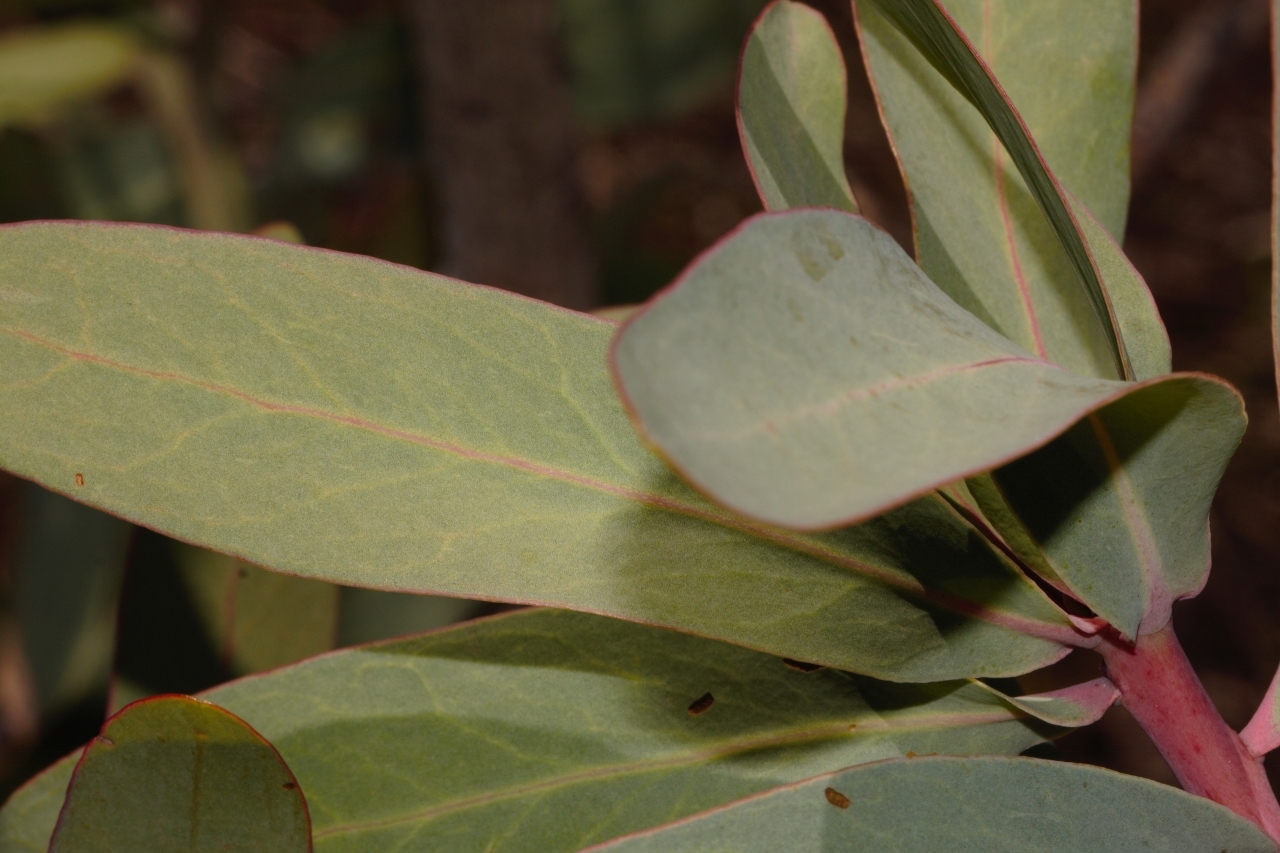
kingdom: Plantae
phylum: Tracheophyta
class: Magnoliopsida
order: Proteales
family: Proteaceae
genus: Protea
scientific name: Protea caffra
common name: Common sugarbush
